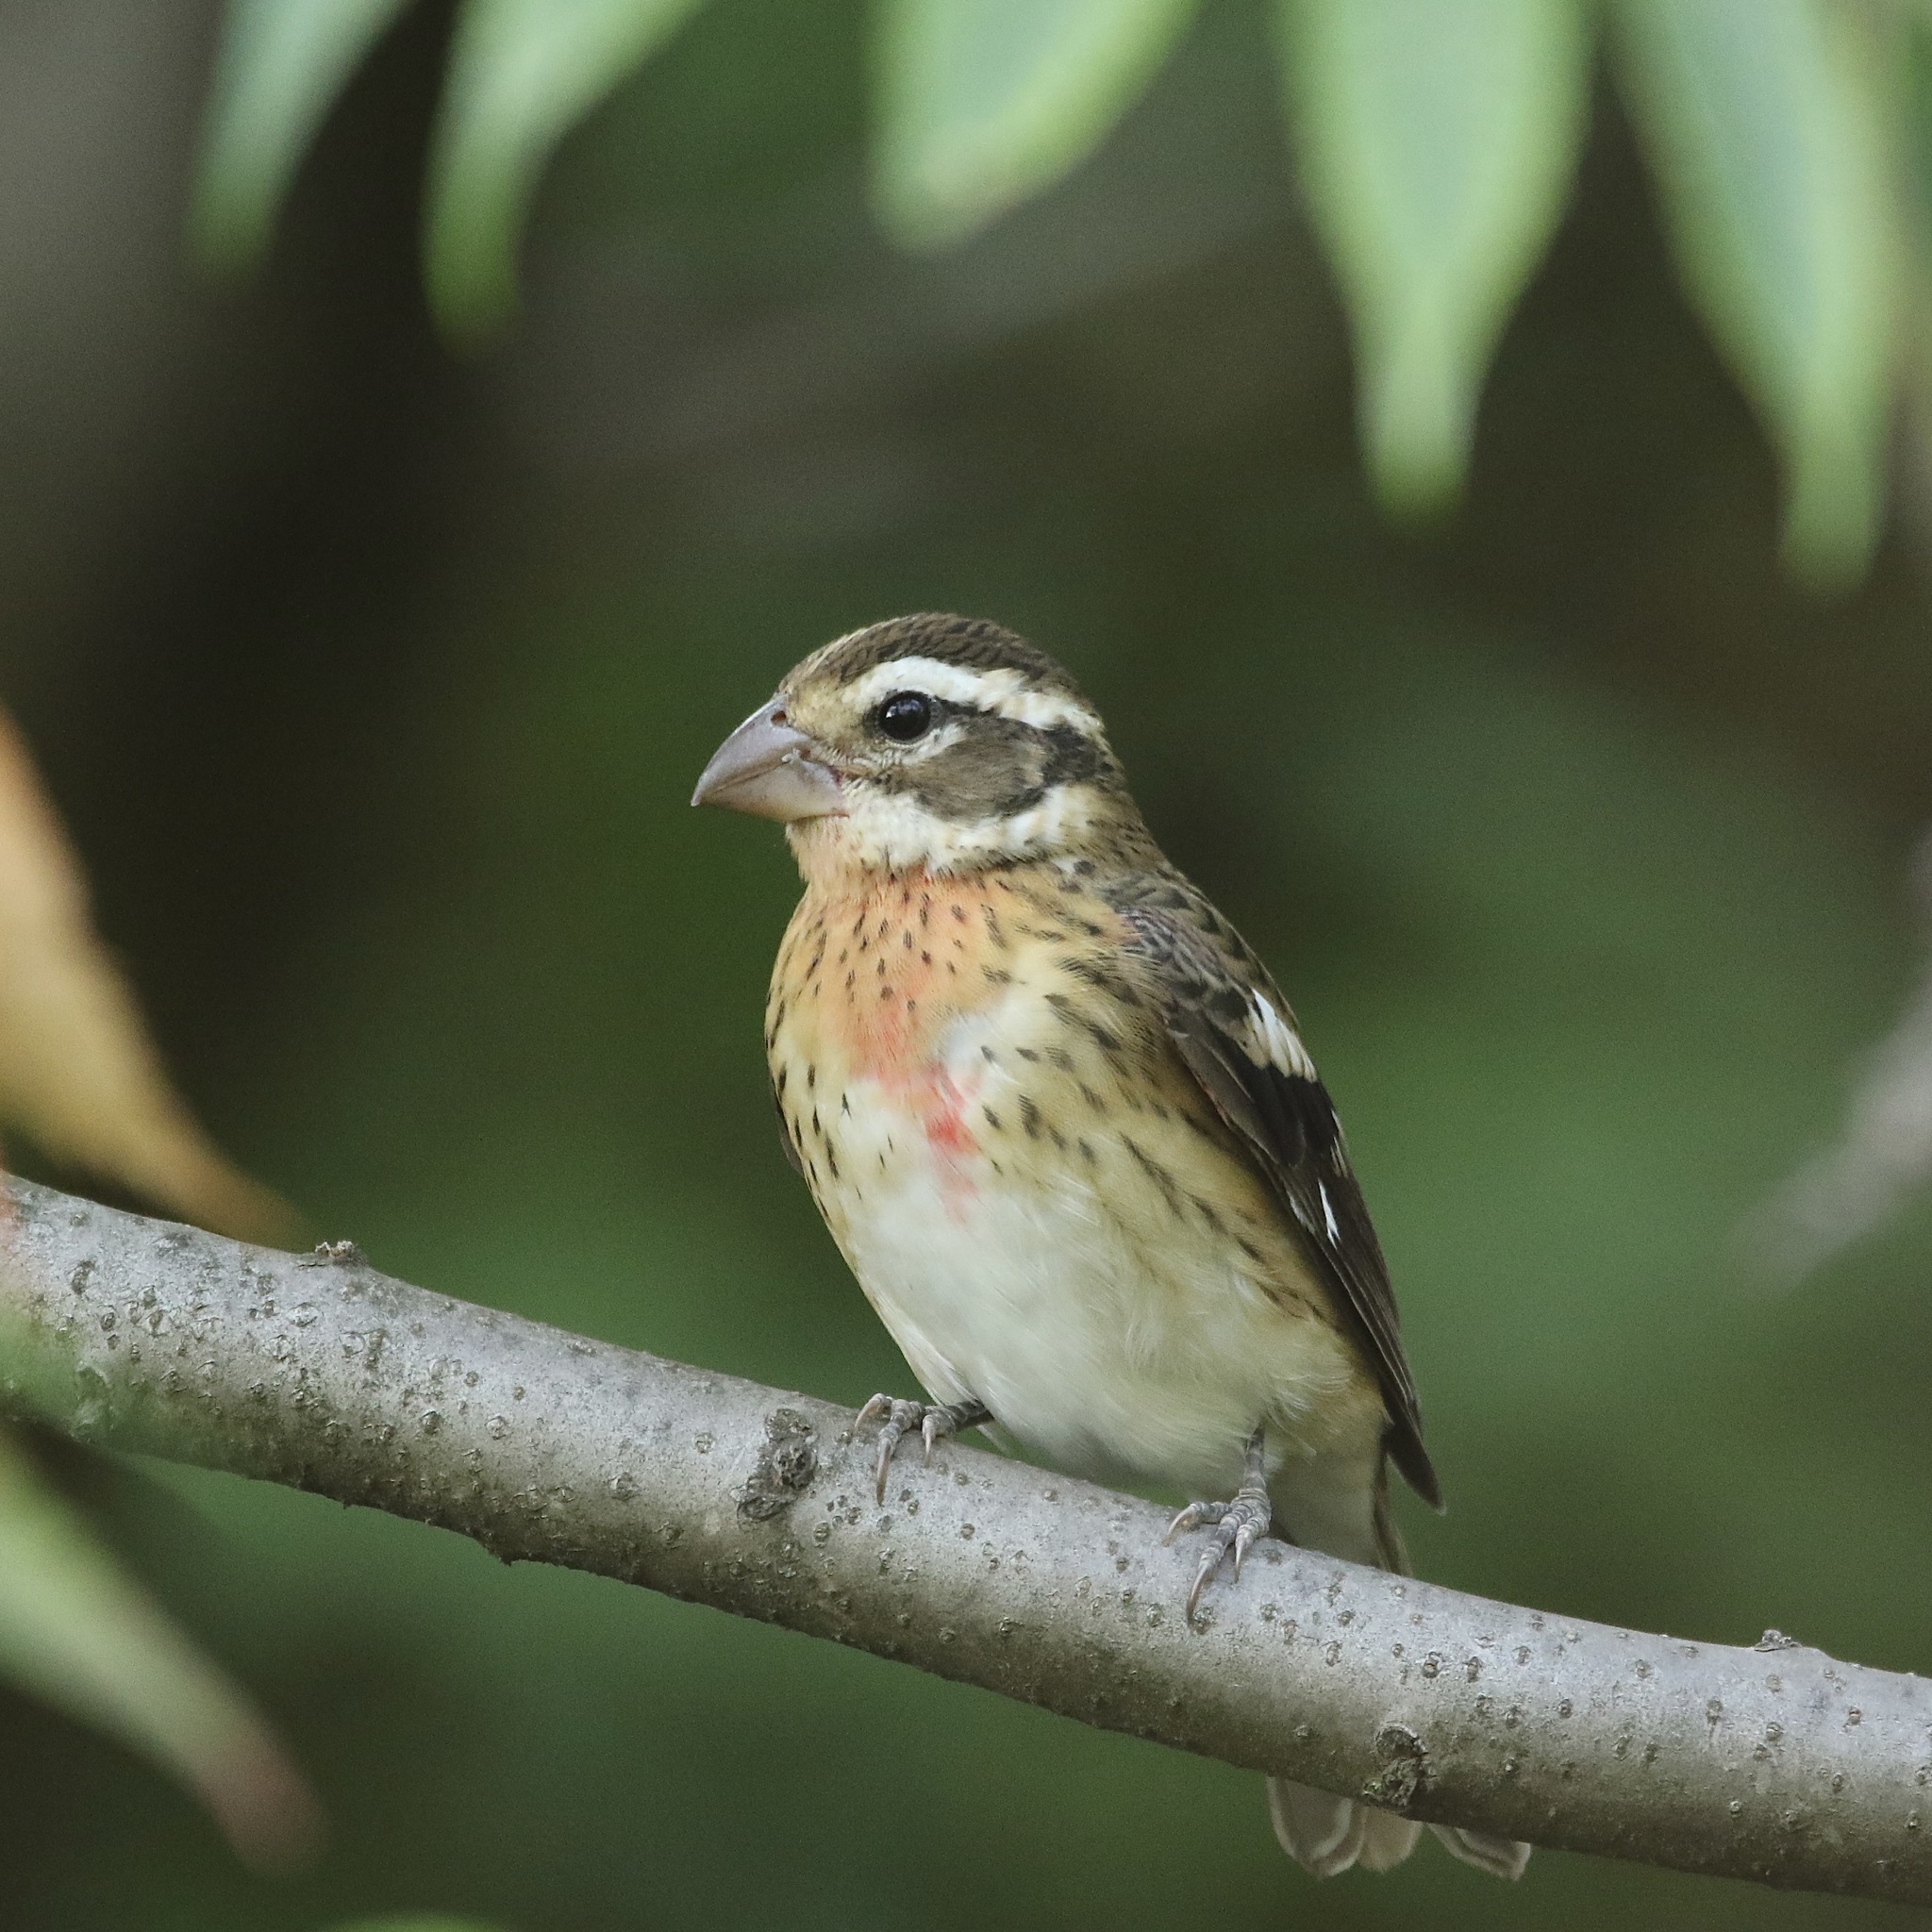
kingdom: Animalia
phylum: Chordata
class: Aves
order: Passeriformes
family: Cardinalidae
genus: Pheucticus
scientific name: Pheucticus ludovicianus
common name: Rose-breasted grosbeak
